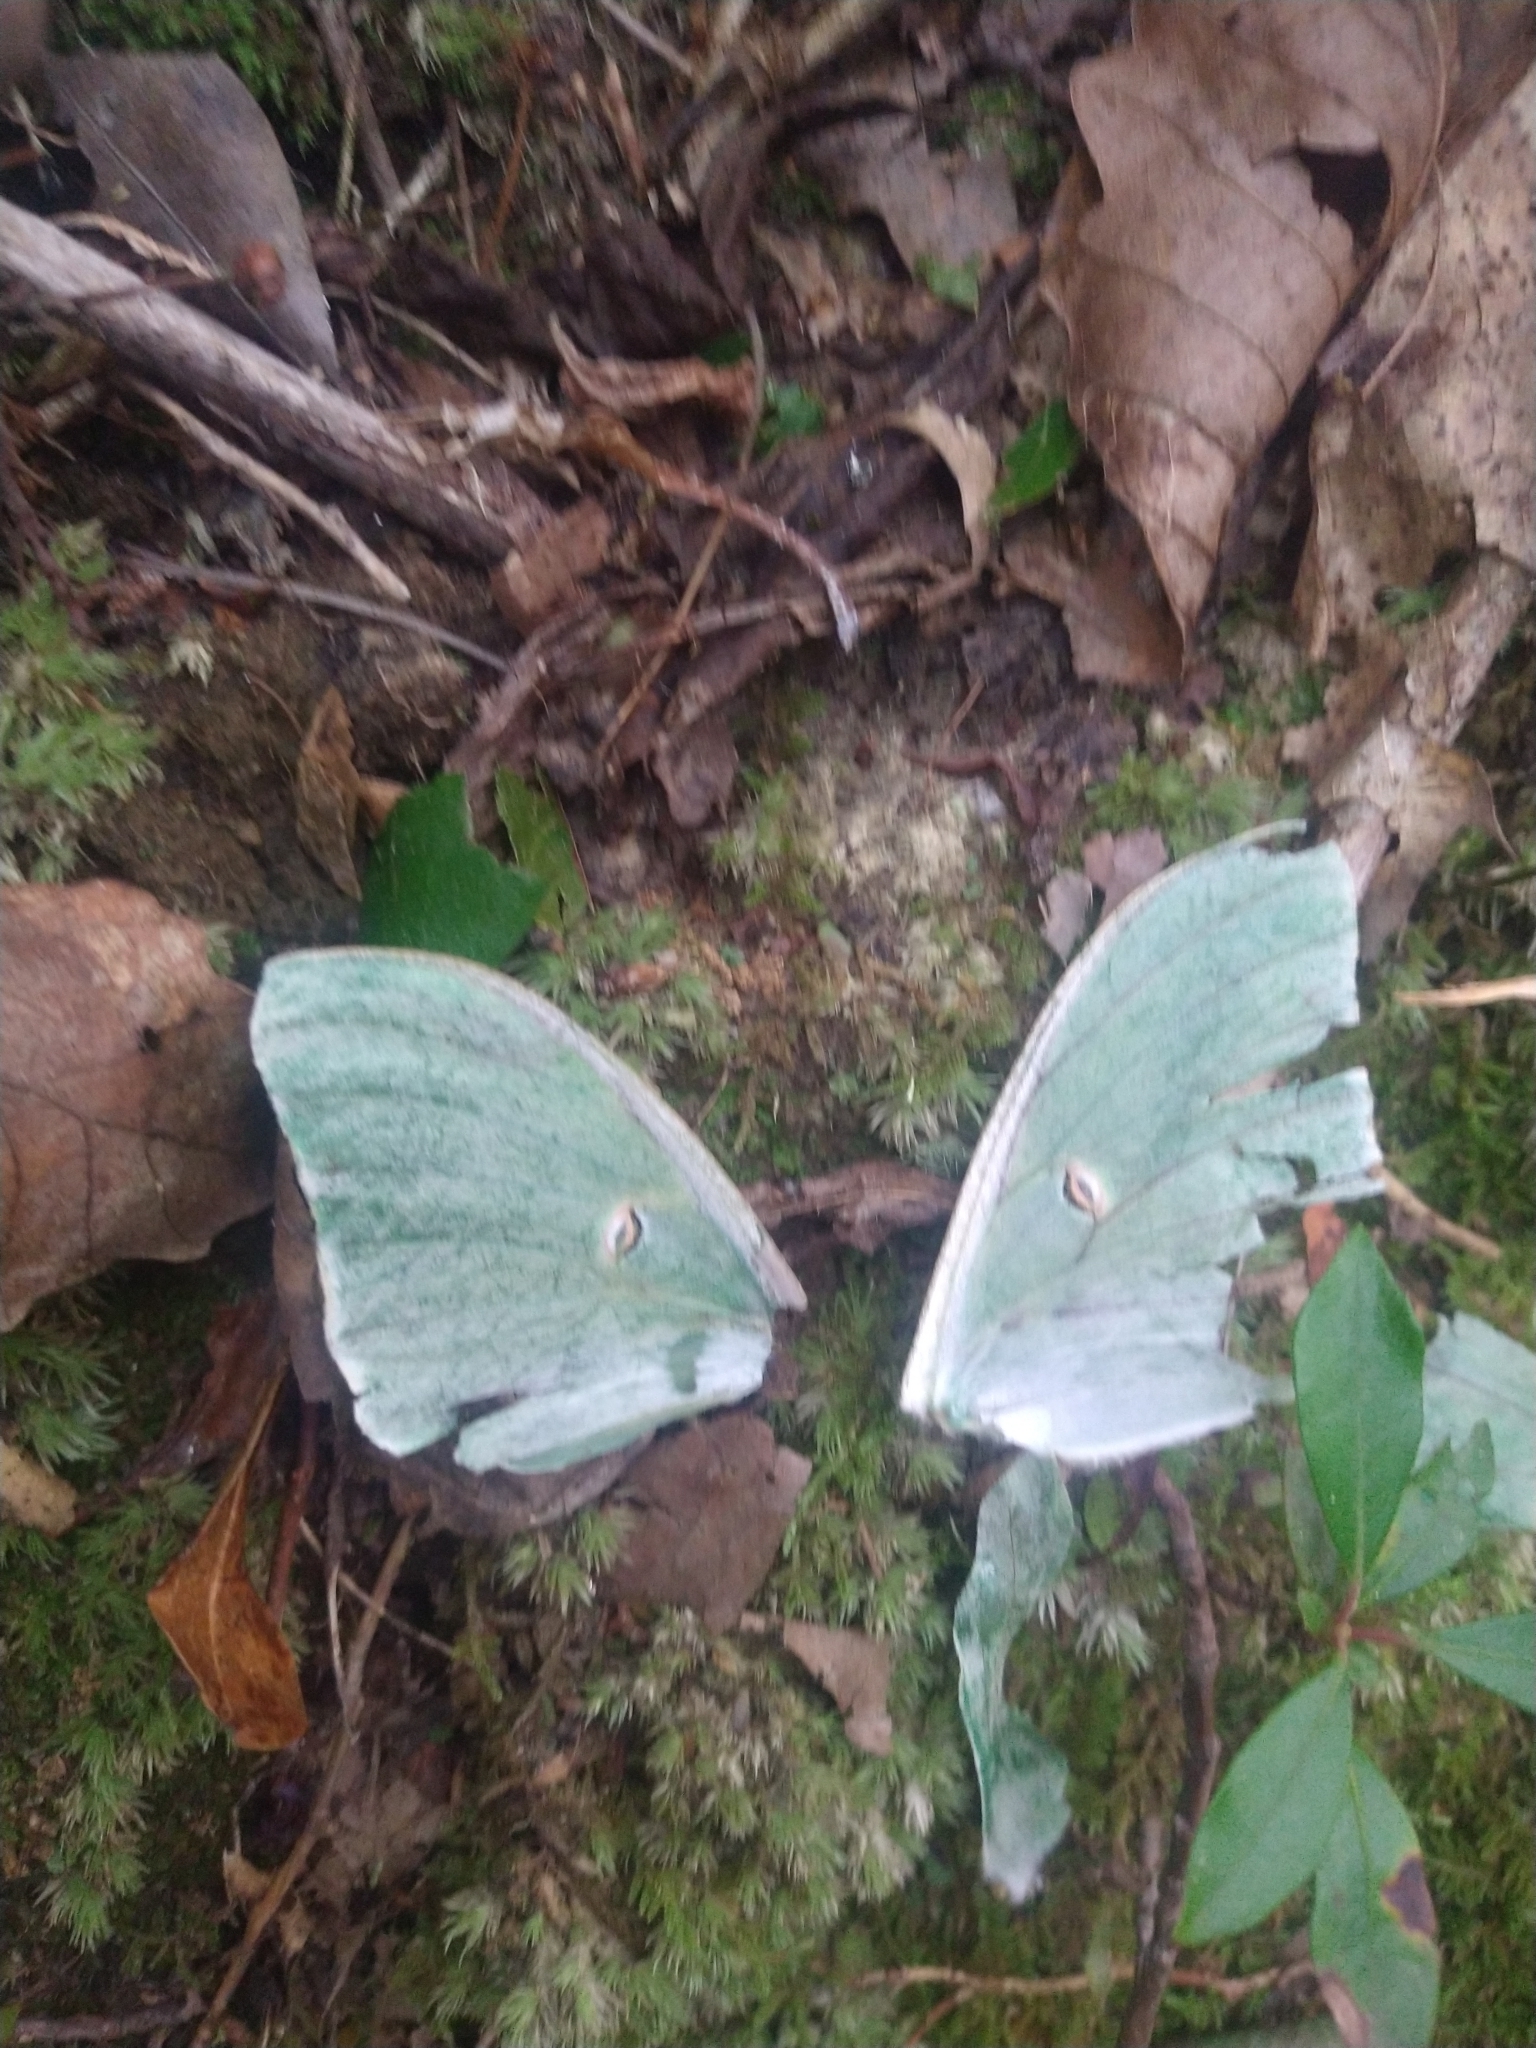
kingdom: Animalia
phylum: Arthropoda
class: Insecta
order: Lepidoptera
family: Saturniidae
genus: Actias
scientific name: Actias luna
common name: Luna moth
